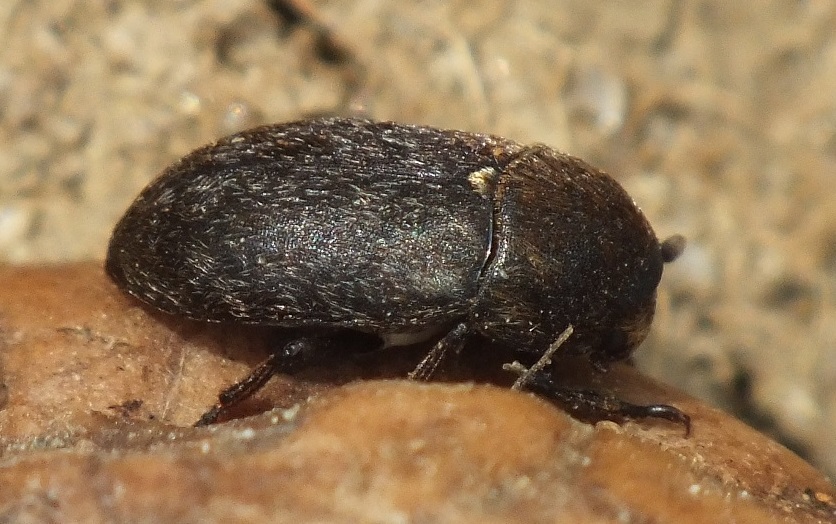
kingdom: Animalia
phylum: Arthropoda
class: Insecta
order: Coleoptera
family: Dermestidae
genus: Dermestes
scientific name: Dermestes laniarius
